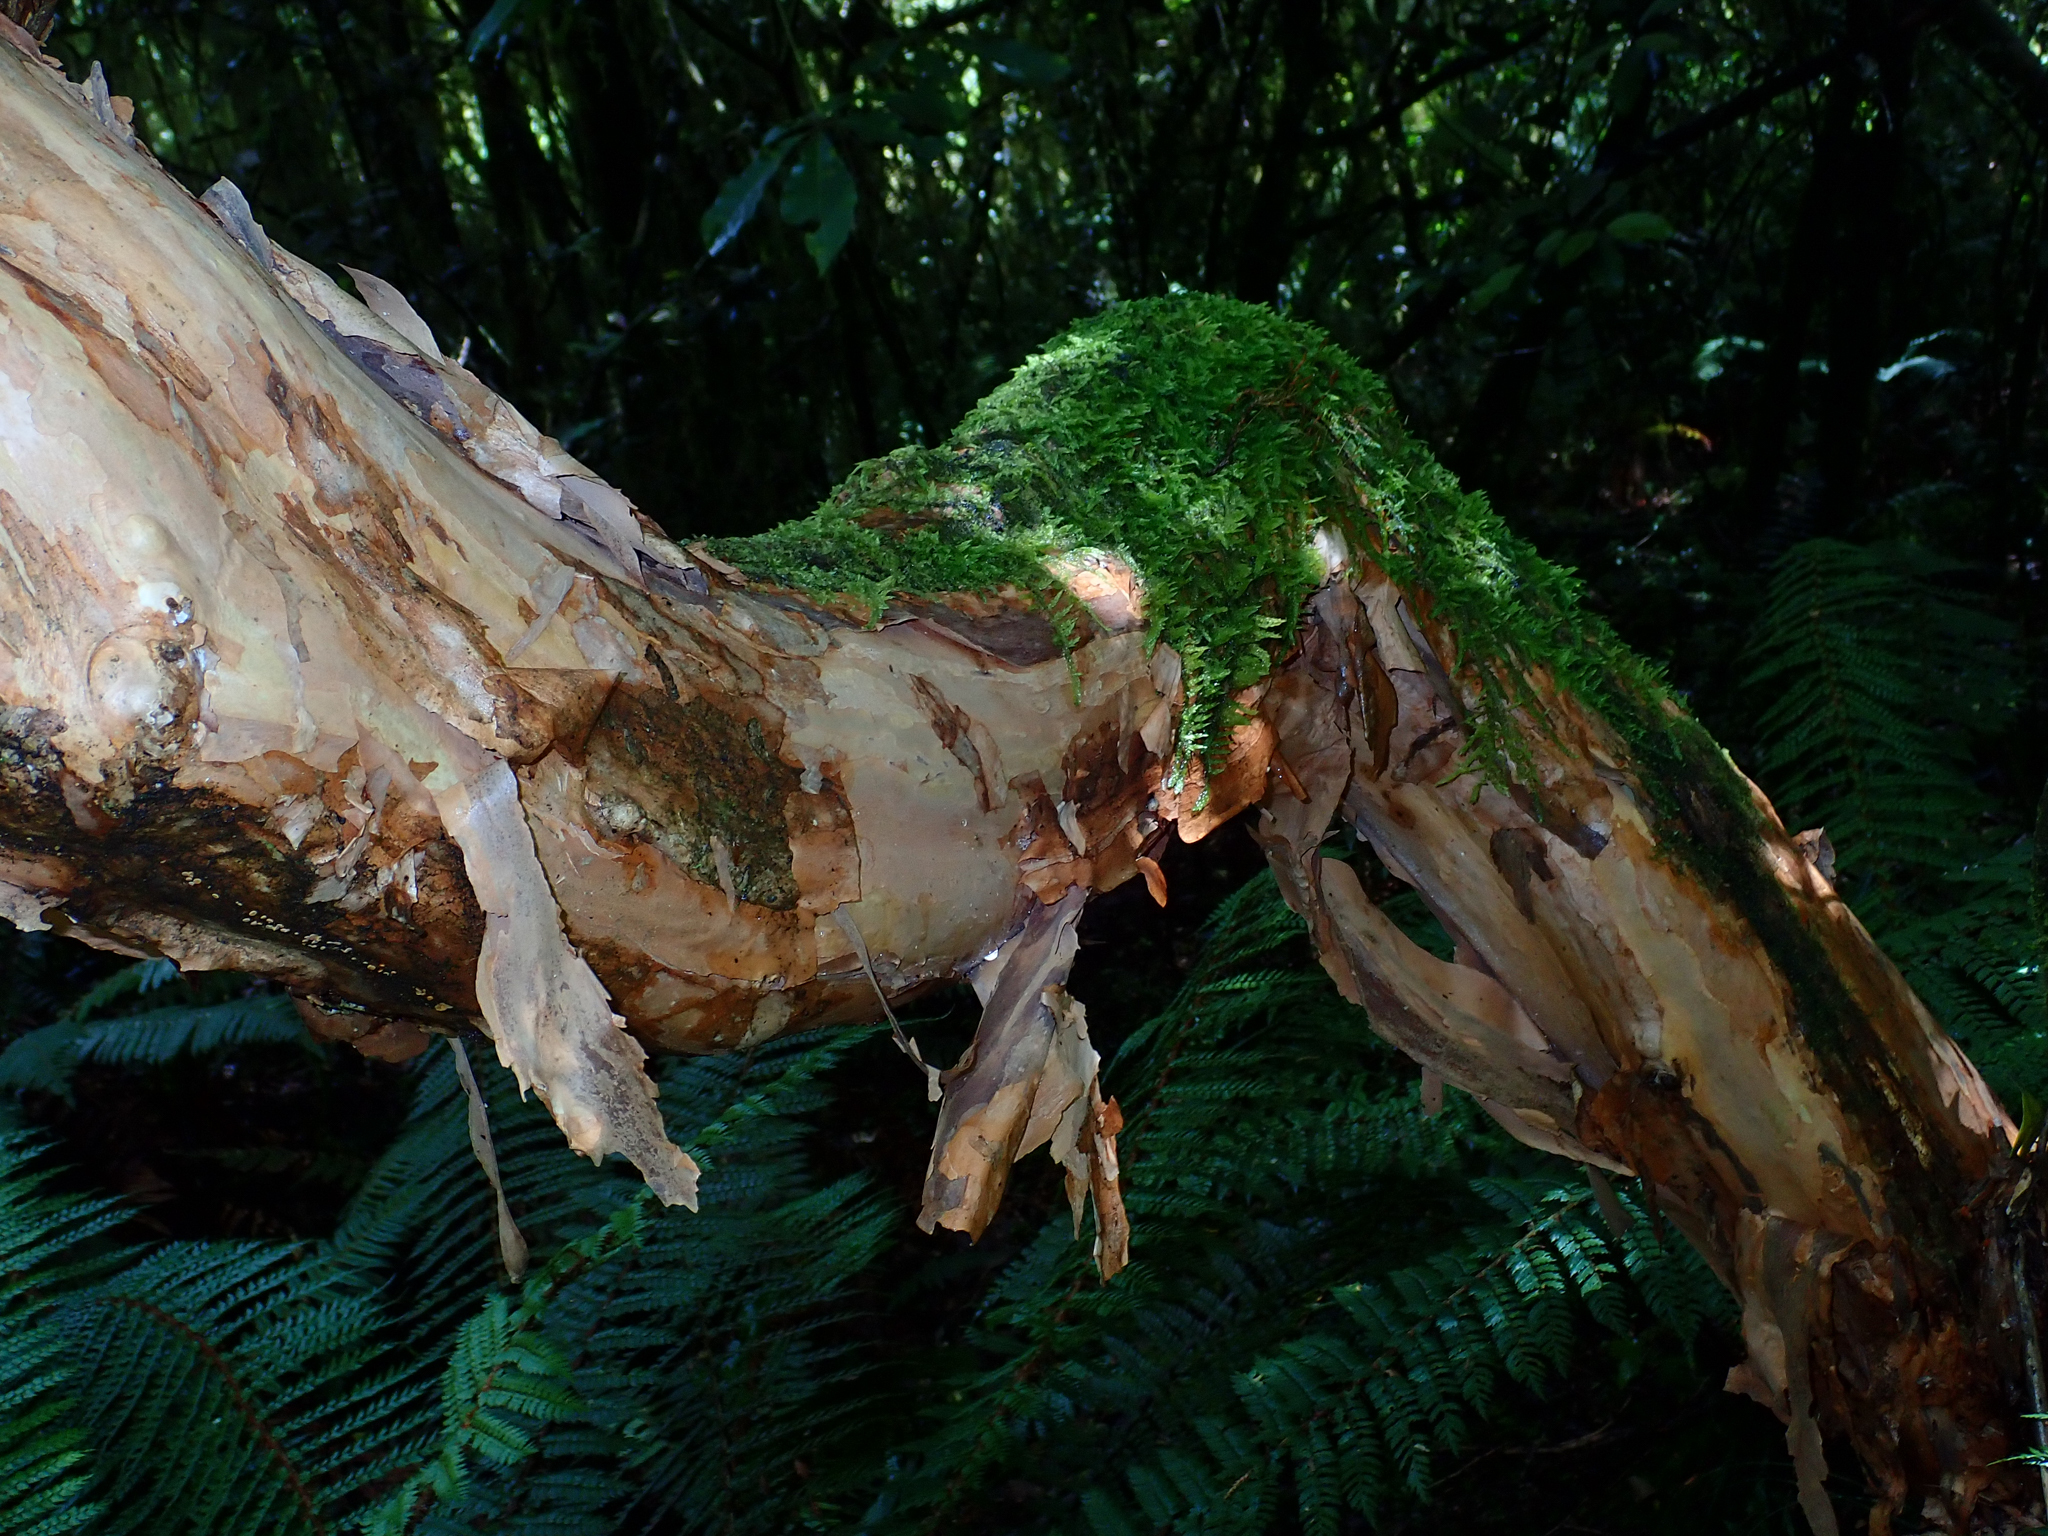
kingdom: Plantae
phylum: Tracheophyta
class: Magnoliopsida
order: Myrtales
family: Onagraceae
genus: Fuchsia
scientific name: Fuchsia excorticata
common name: Tree fuchsia
